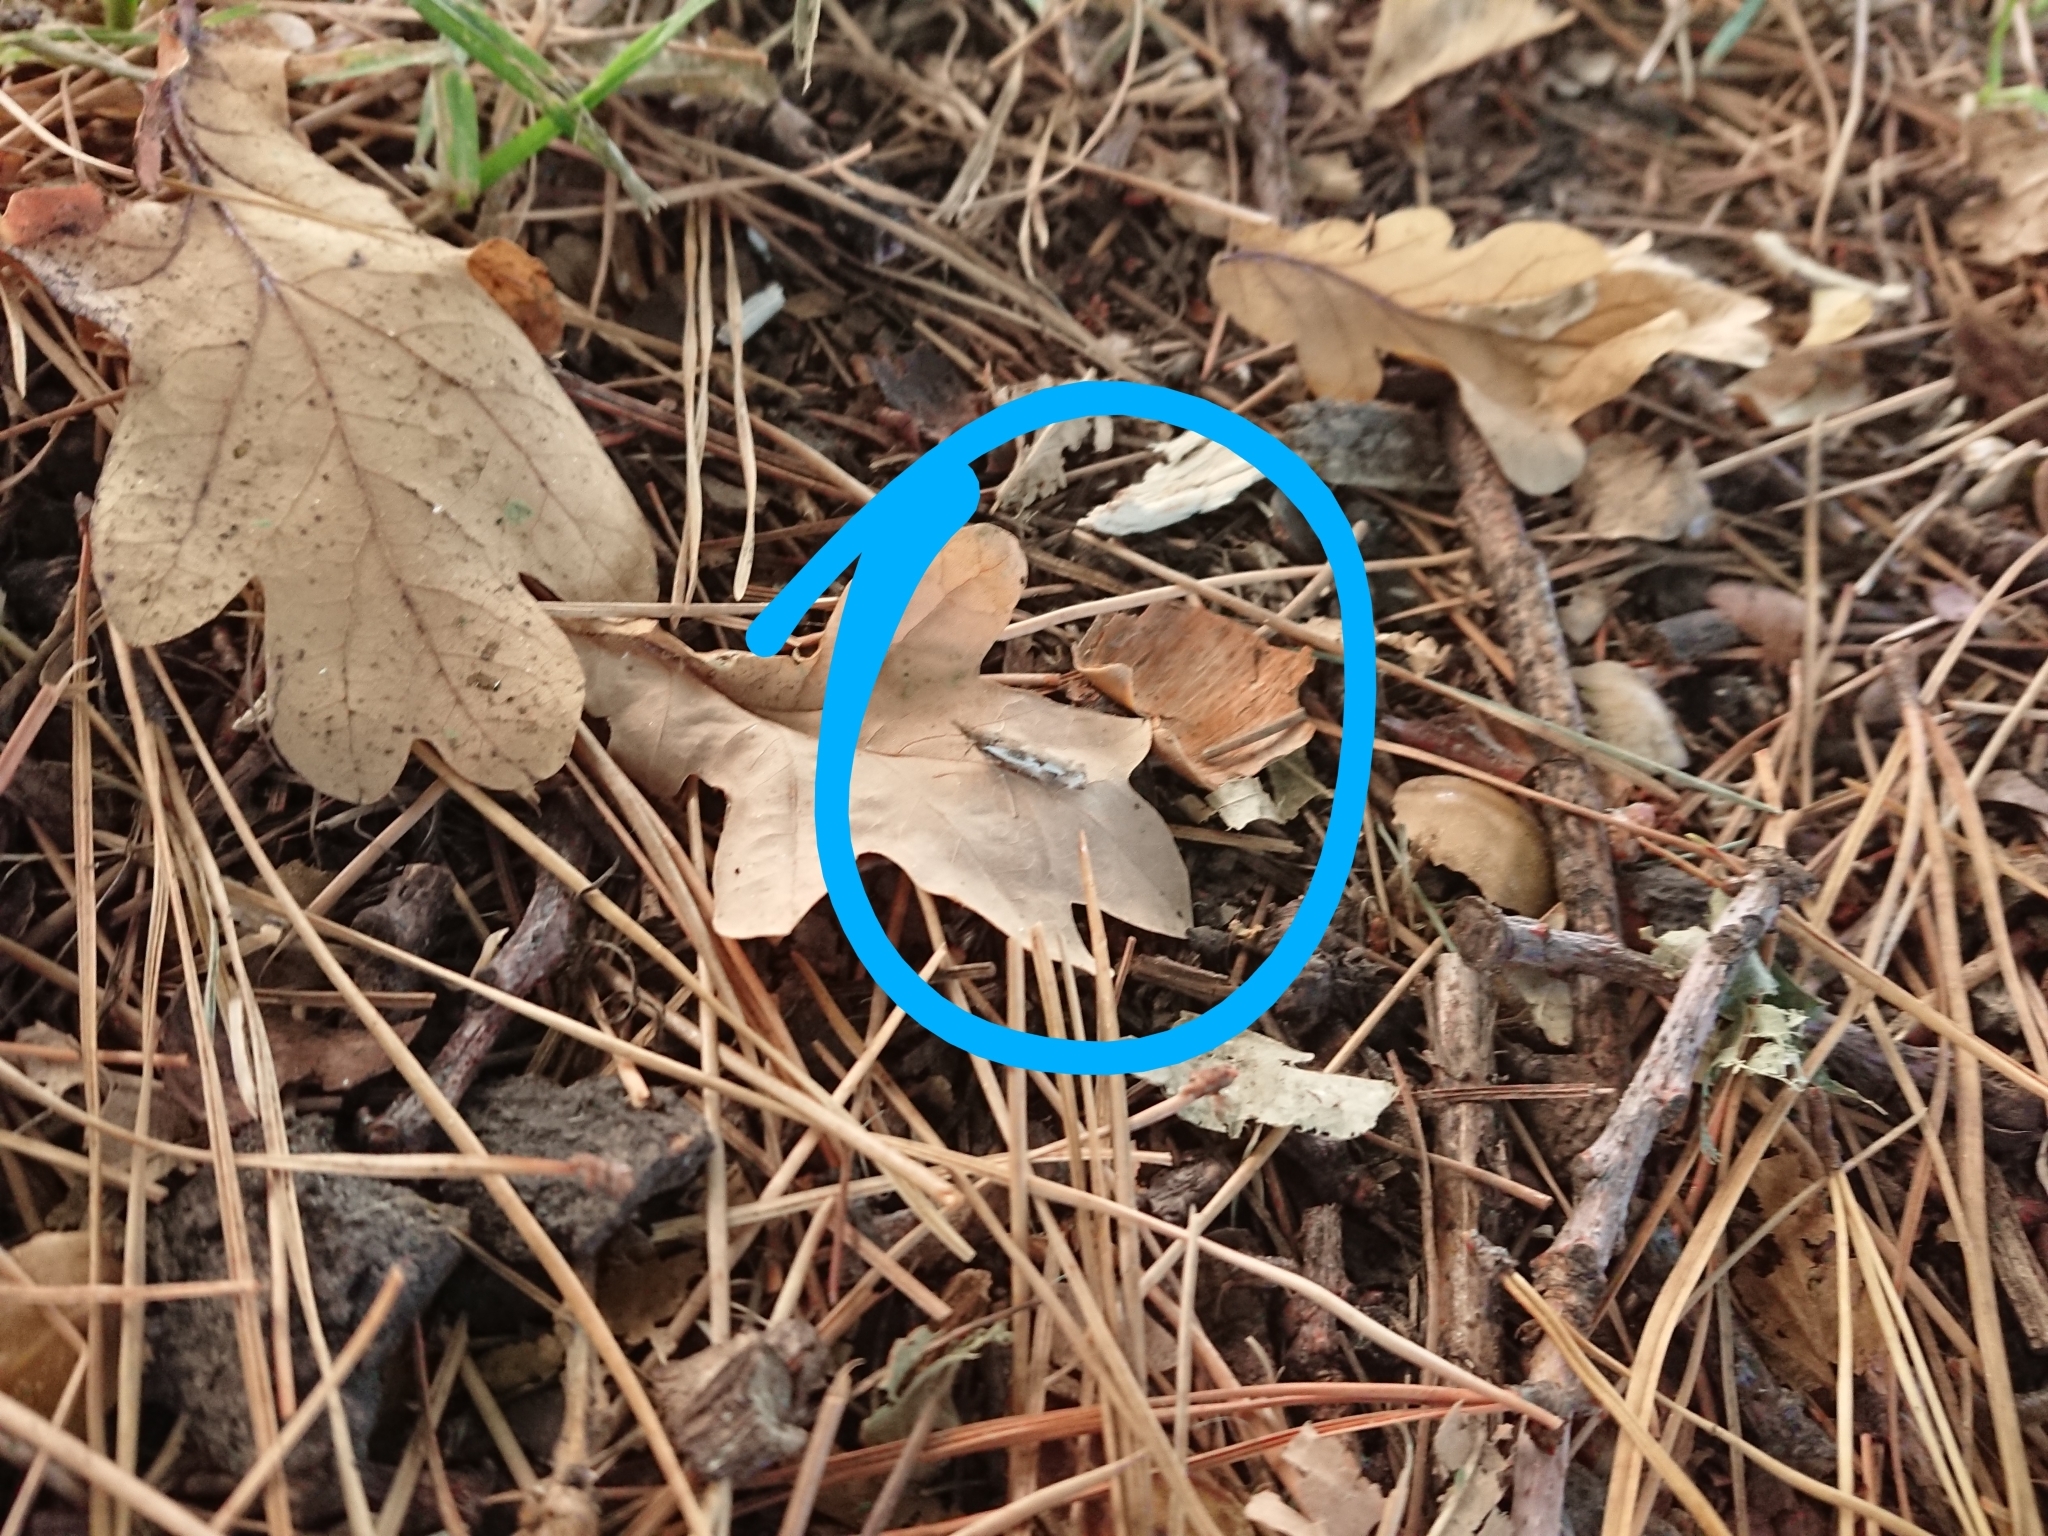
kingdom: Animalia
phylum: Arthropoda
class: Insecta
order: Lepidoptera
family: Crambidae
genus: Orocrambus
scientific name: Orocrambus vulgaris
